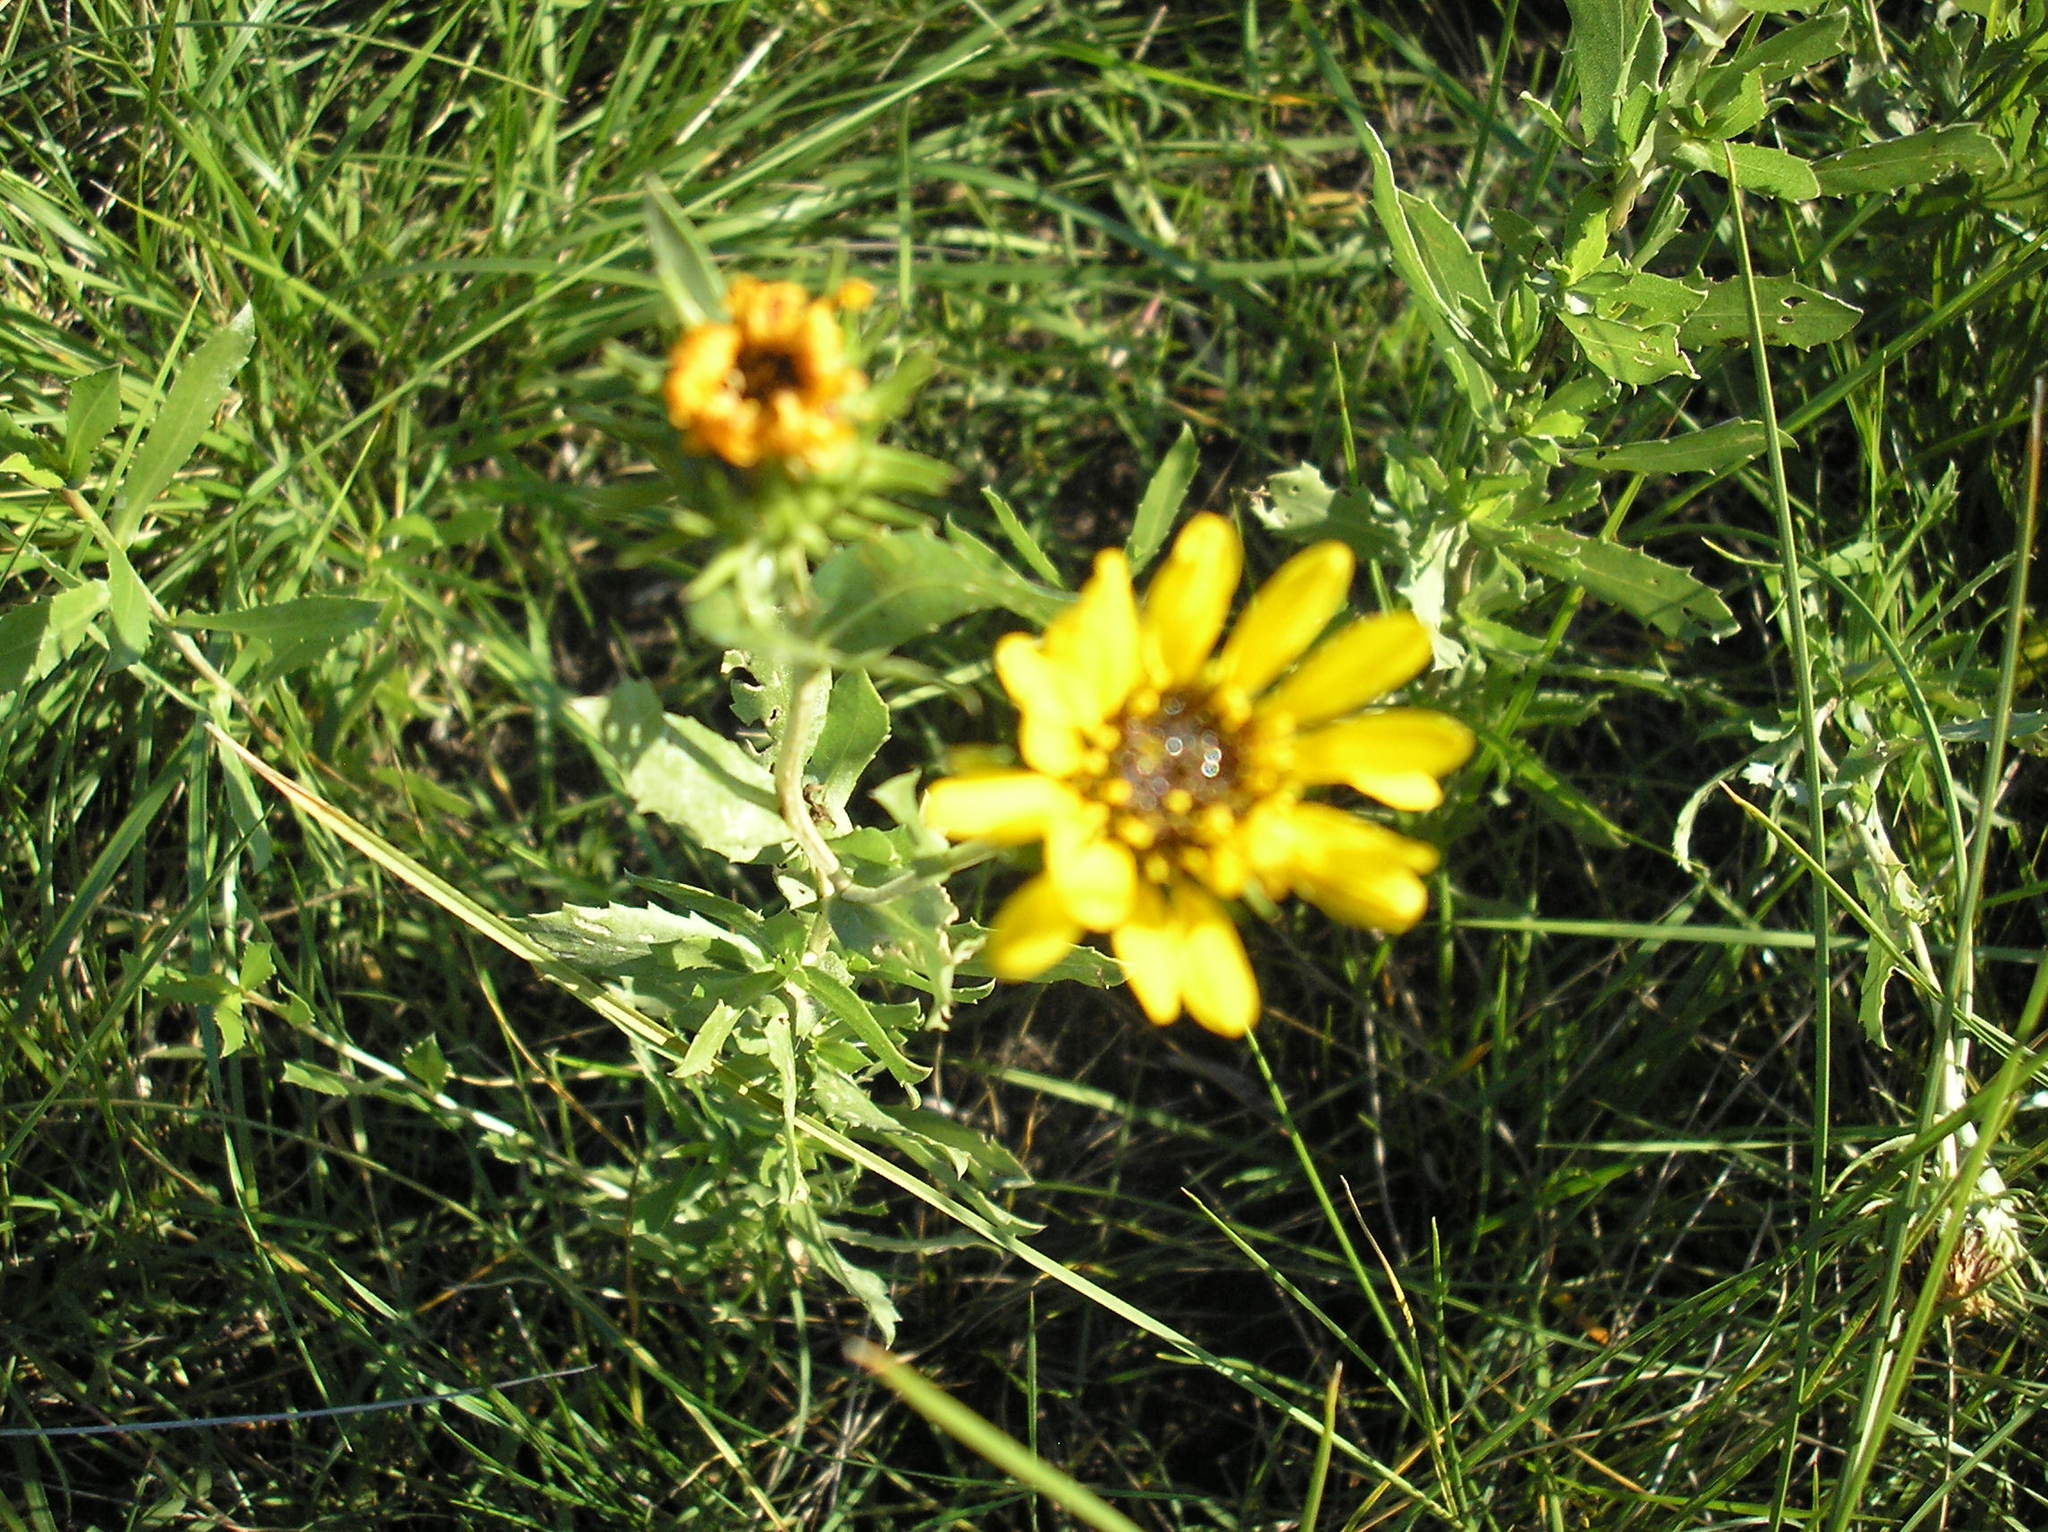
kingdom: Plantae
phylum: Tracheophyta
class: Magnoliopsida
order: Asterales
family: Asteraceae
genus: Grindelia
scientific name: Grindelia pulchella
